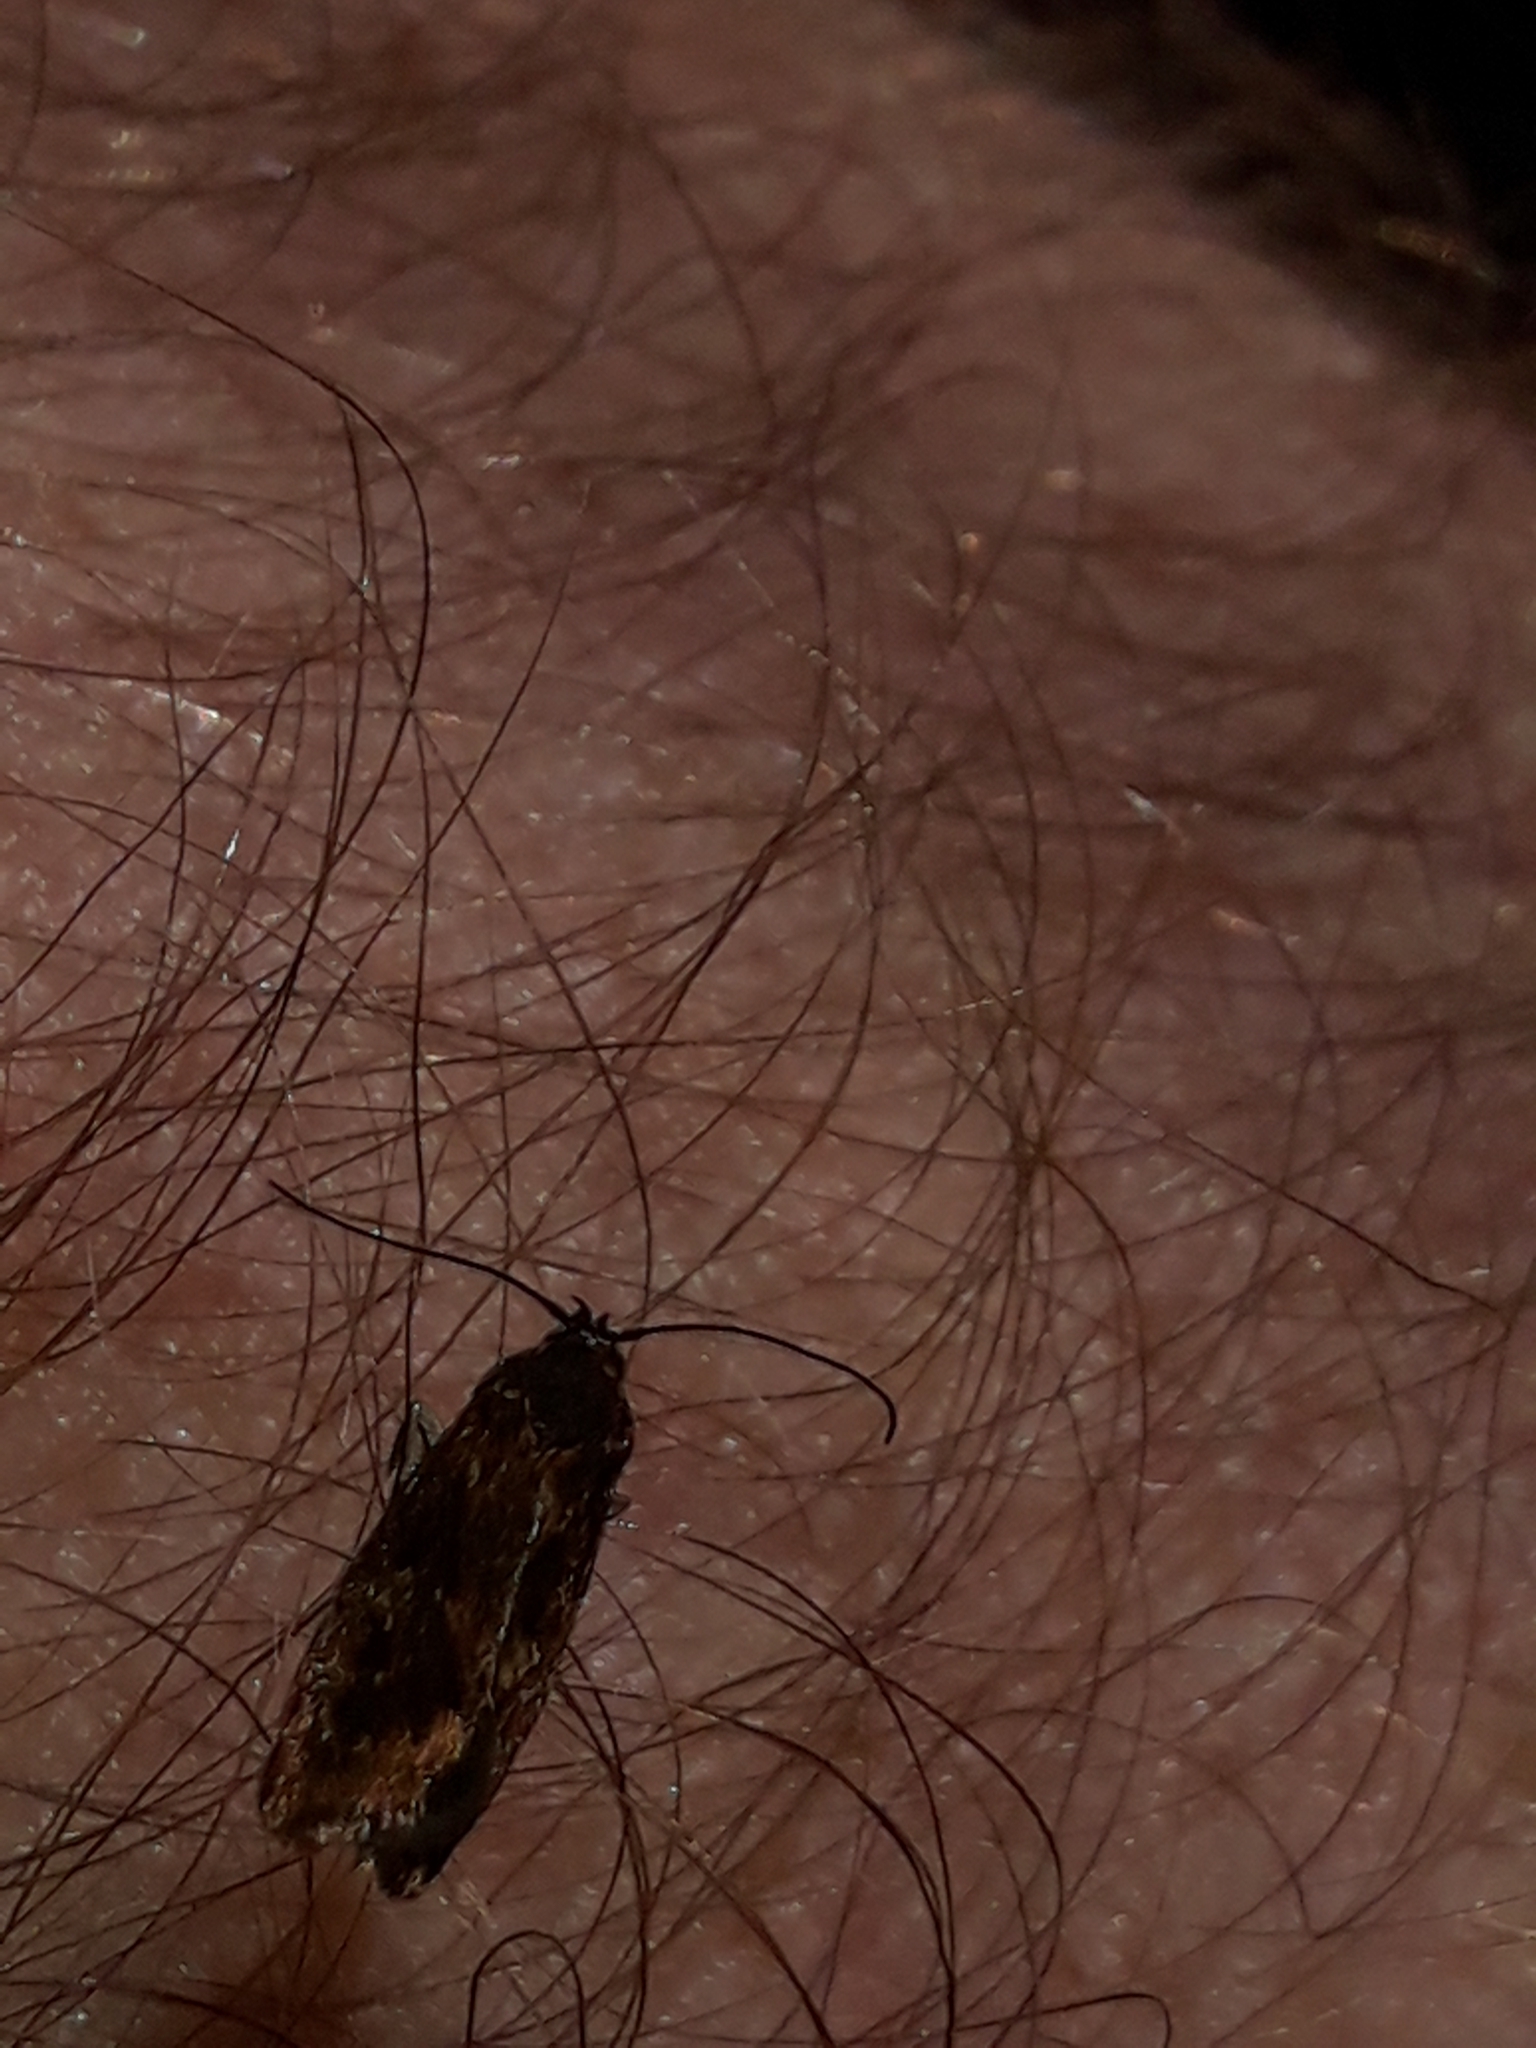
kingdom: Animalia
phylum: Arthropoda
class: Insecta
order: Lepidoptera
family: Oecophoridae
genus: Hierodoris
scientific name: Hierodoris atychioides
